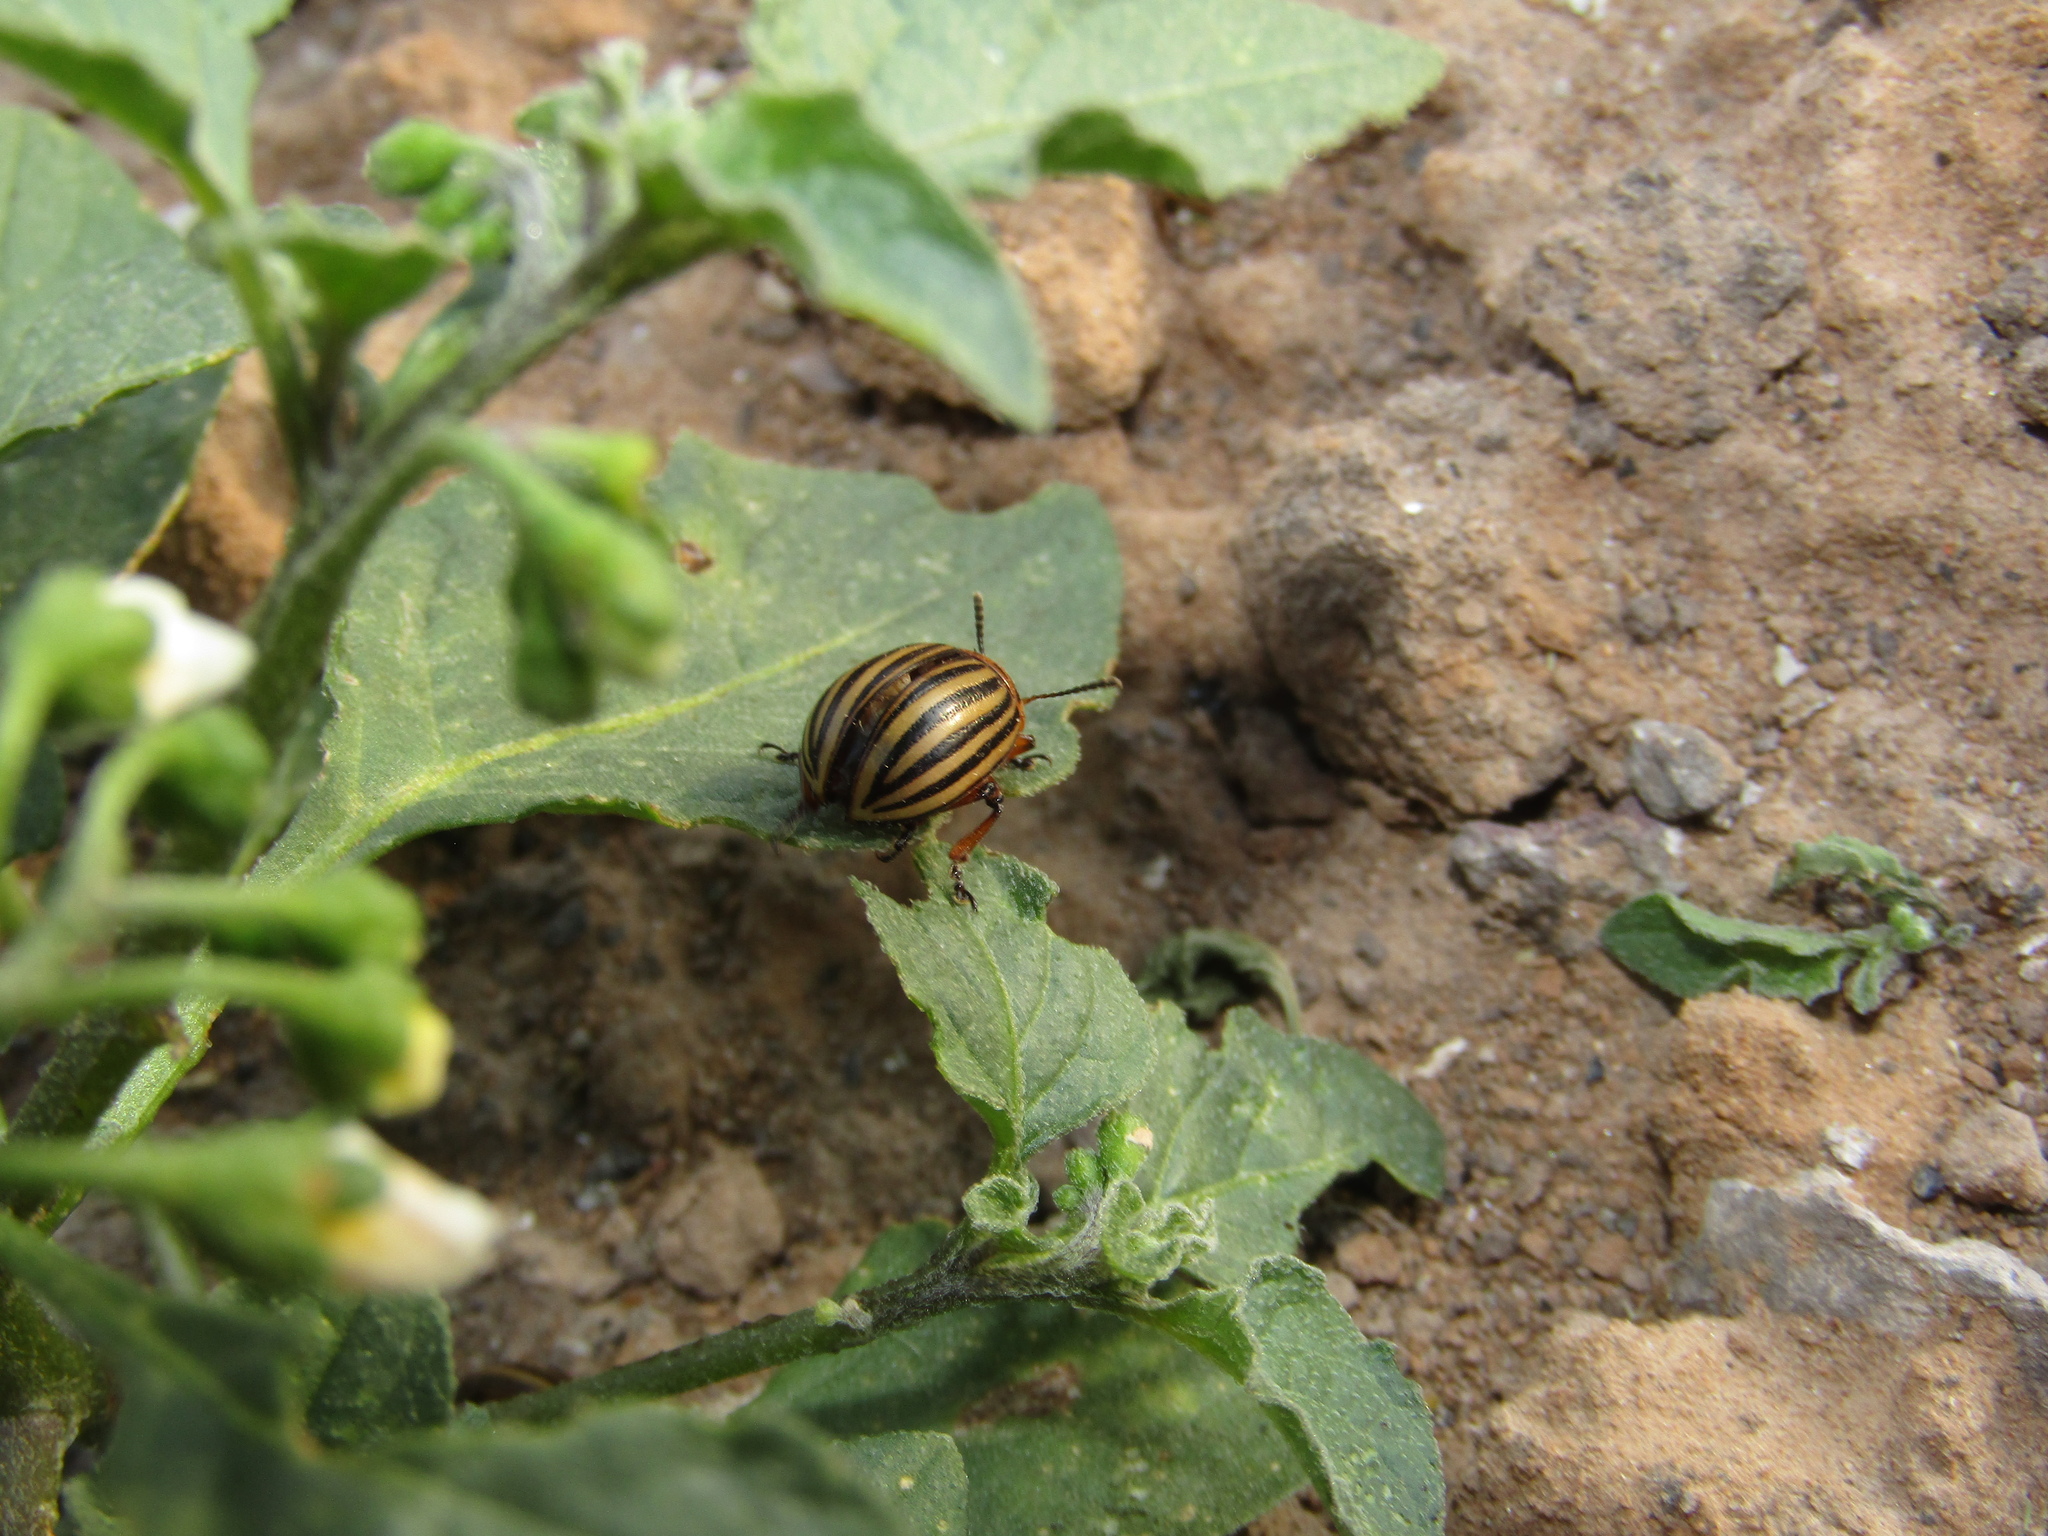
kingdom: Animalia
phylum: Arthropoda
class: Insecta
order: Coleoptera
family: Chrysomelidae
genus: Leptinotarsa
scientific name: Leptinotarsa decemlineata
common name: Colorado potato beetle
